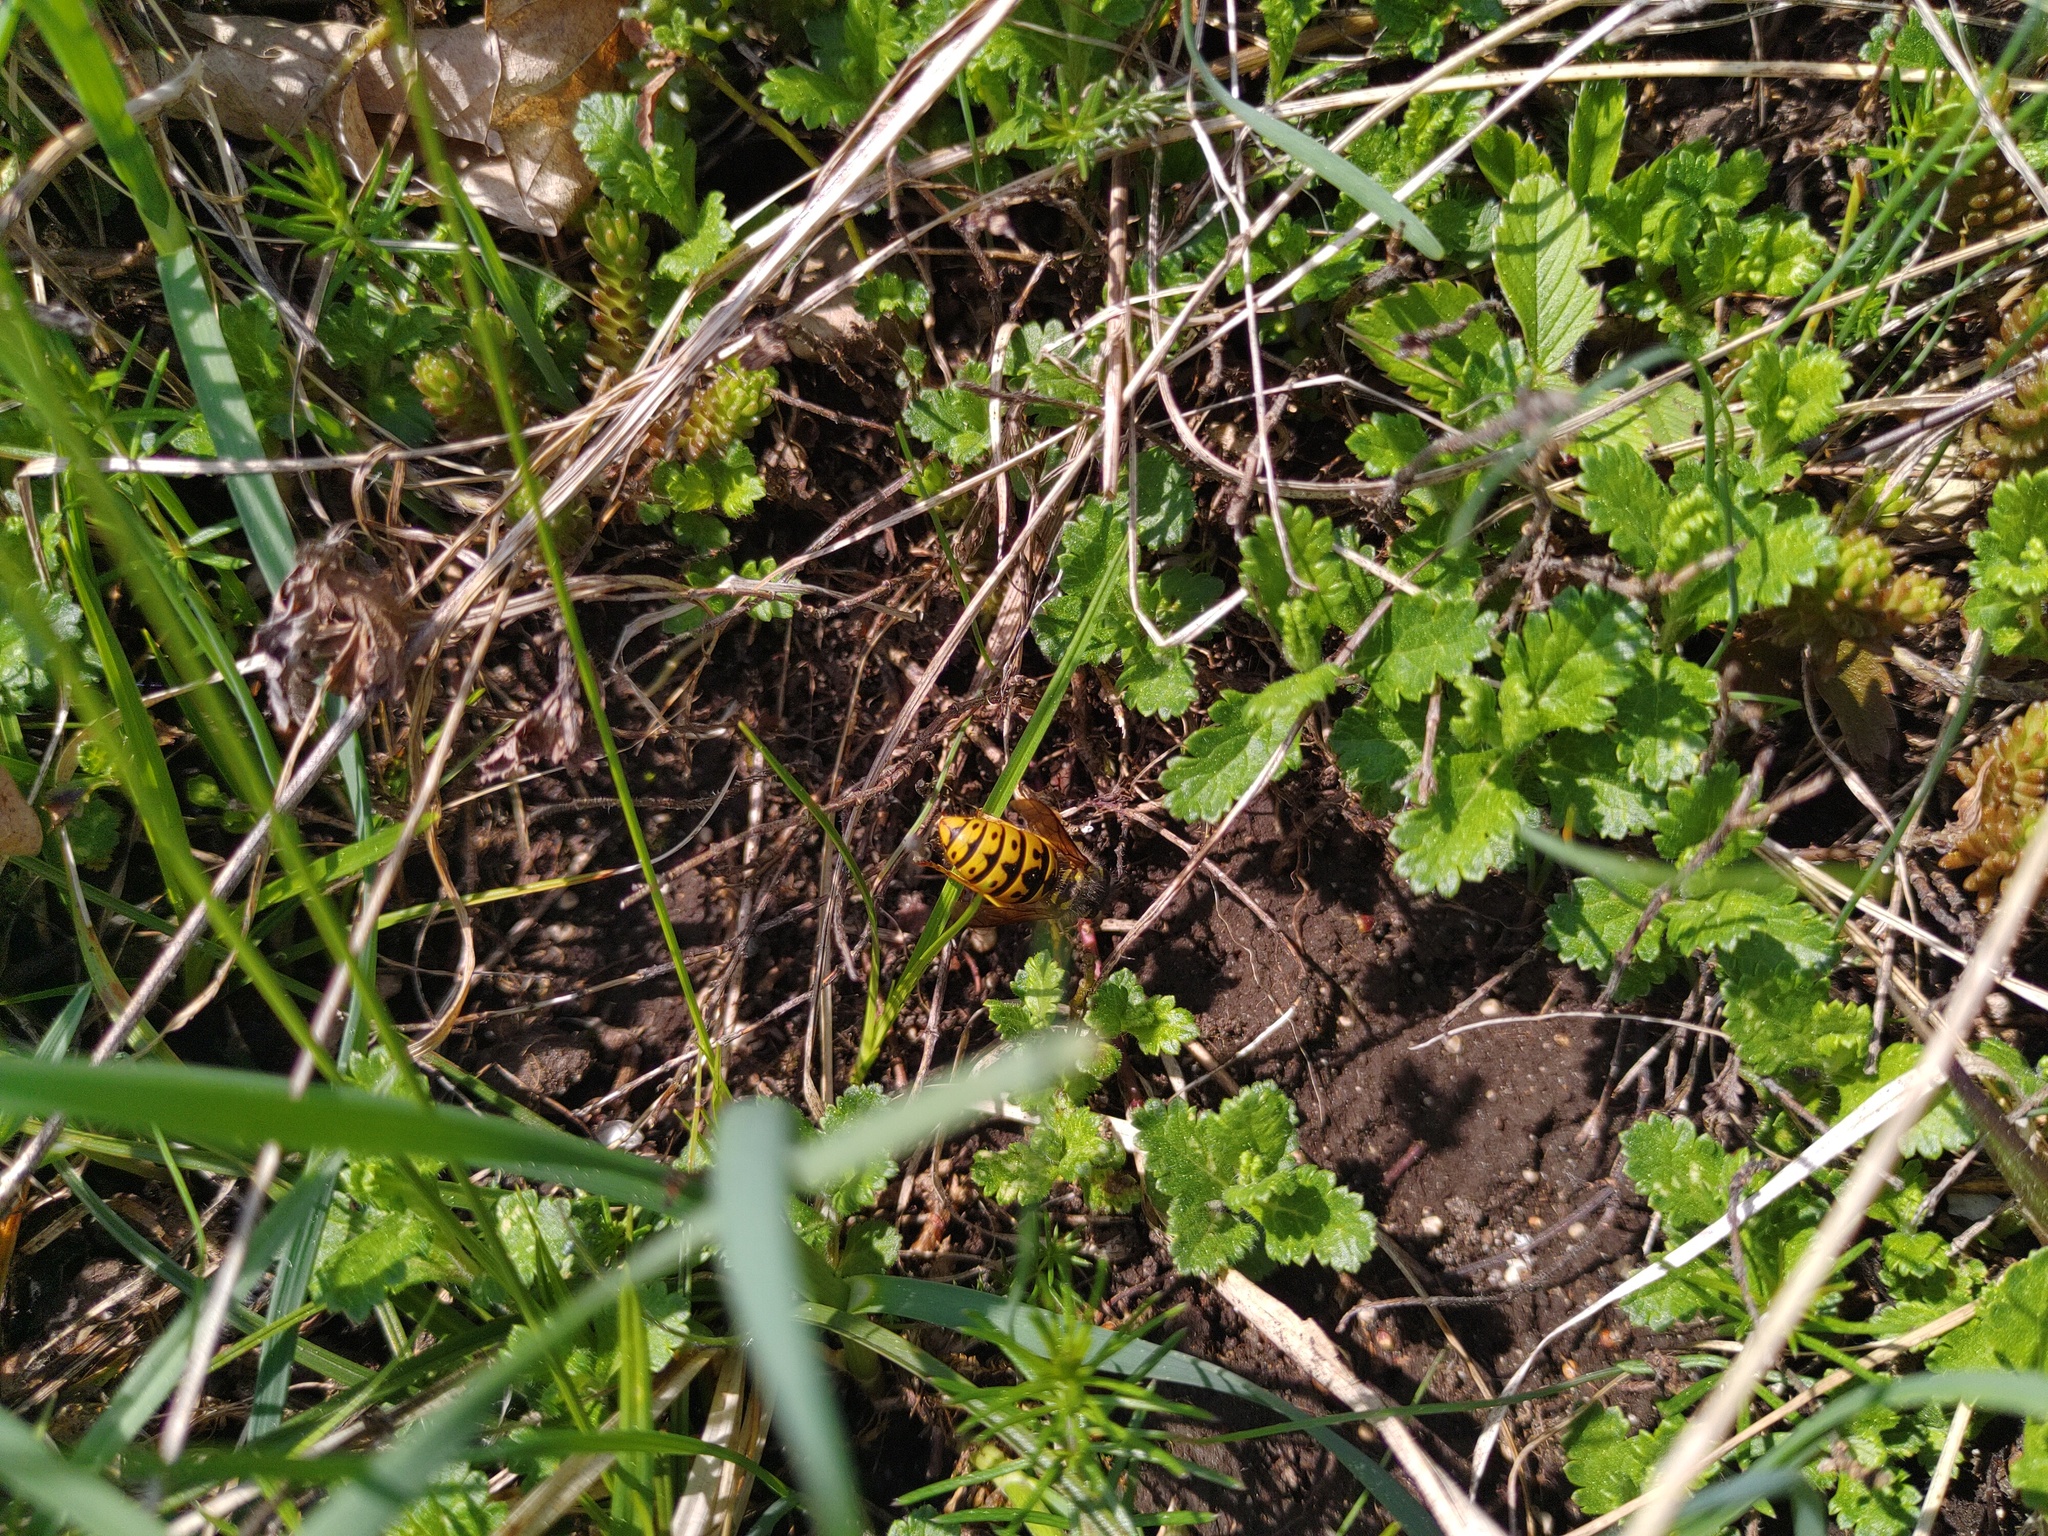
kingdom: Animalia
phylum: Arthropoda
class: Insecta
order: Hymenoptera
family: Vespidae
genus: Vespula
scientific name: Vespula germanica
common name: German wasp
